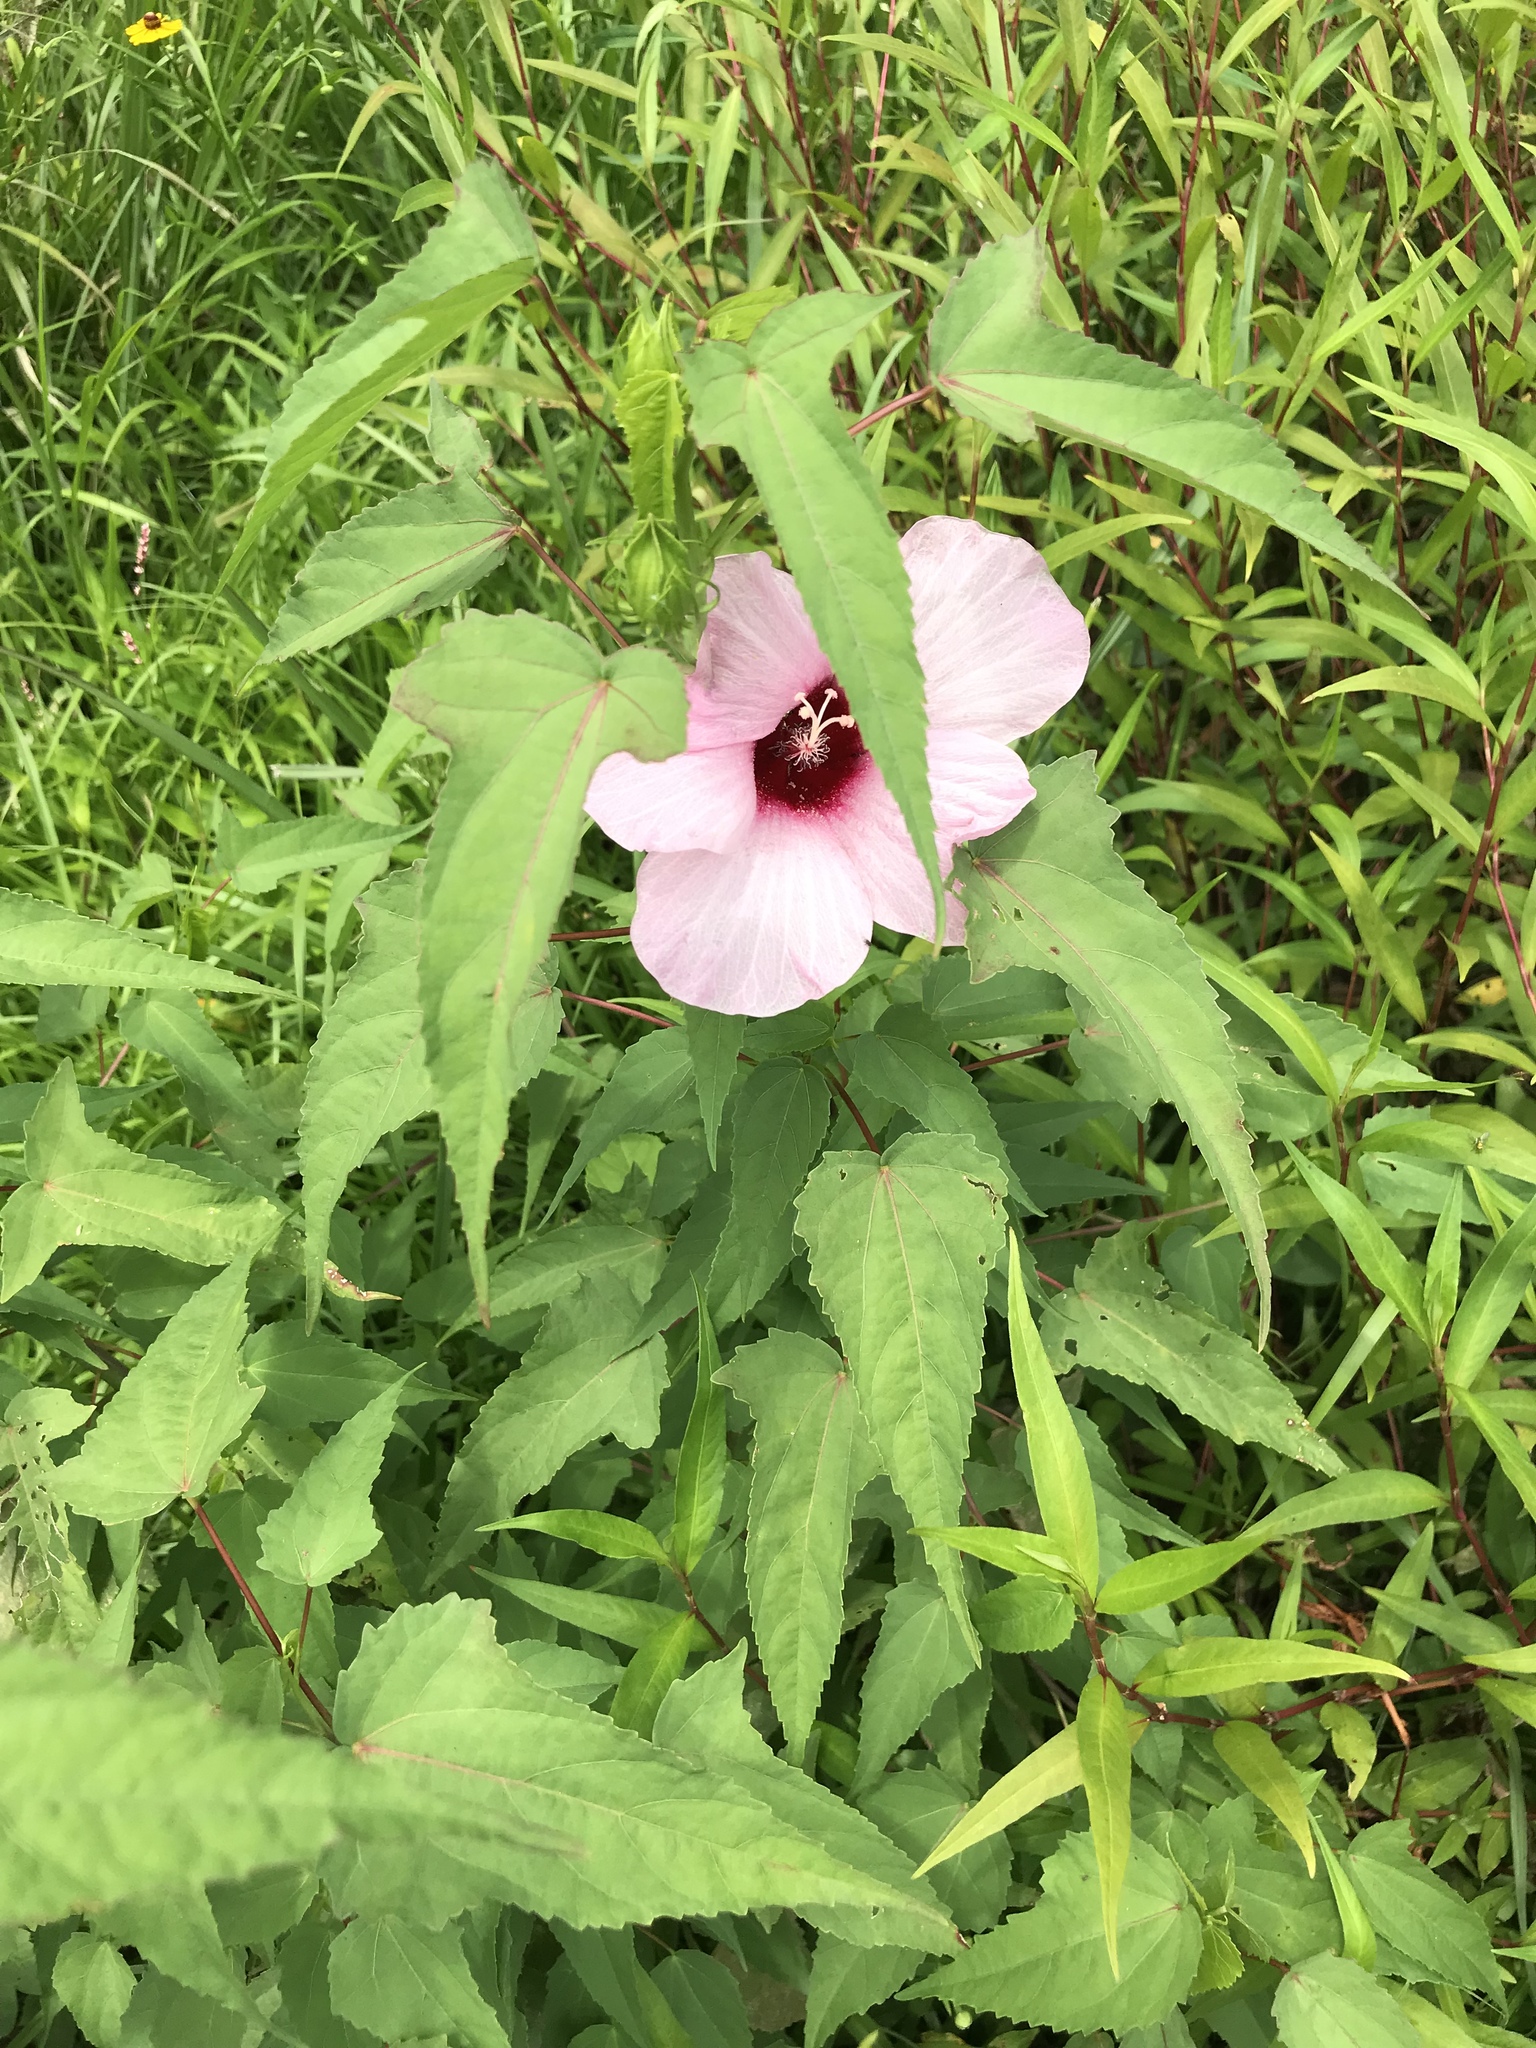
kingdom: Plantae
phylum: Tracheophyta
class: Magnoliopsida
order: Malvales
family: Malvaceae
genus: Hibiscus
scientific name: Hibiscus laevis
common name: Scarlet rose-mallow
